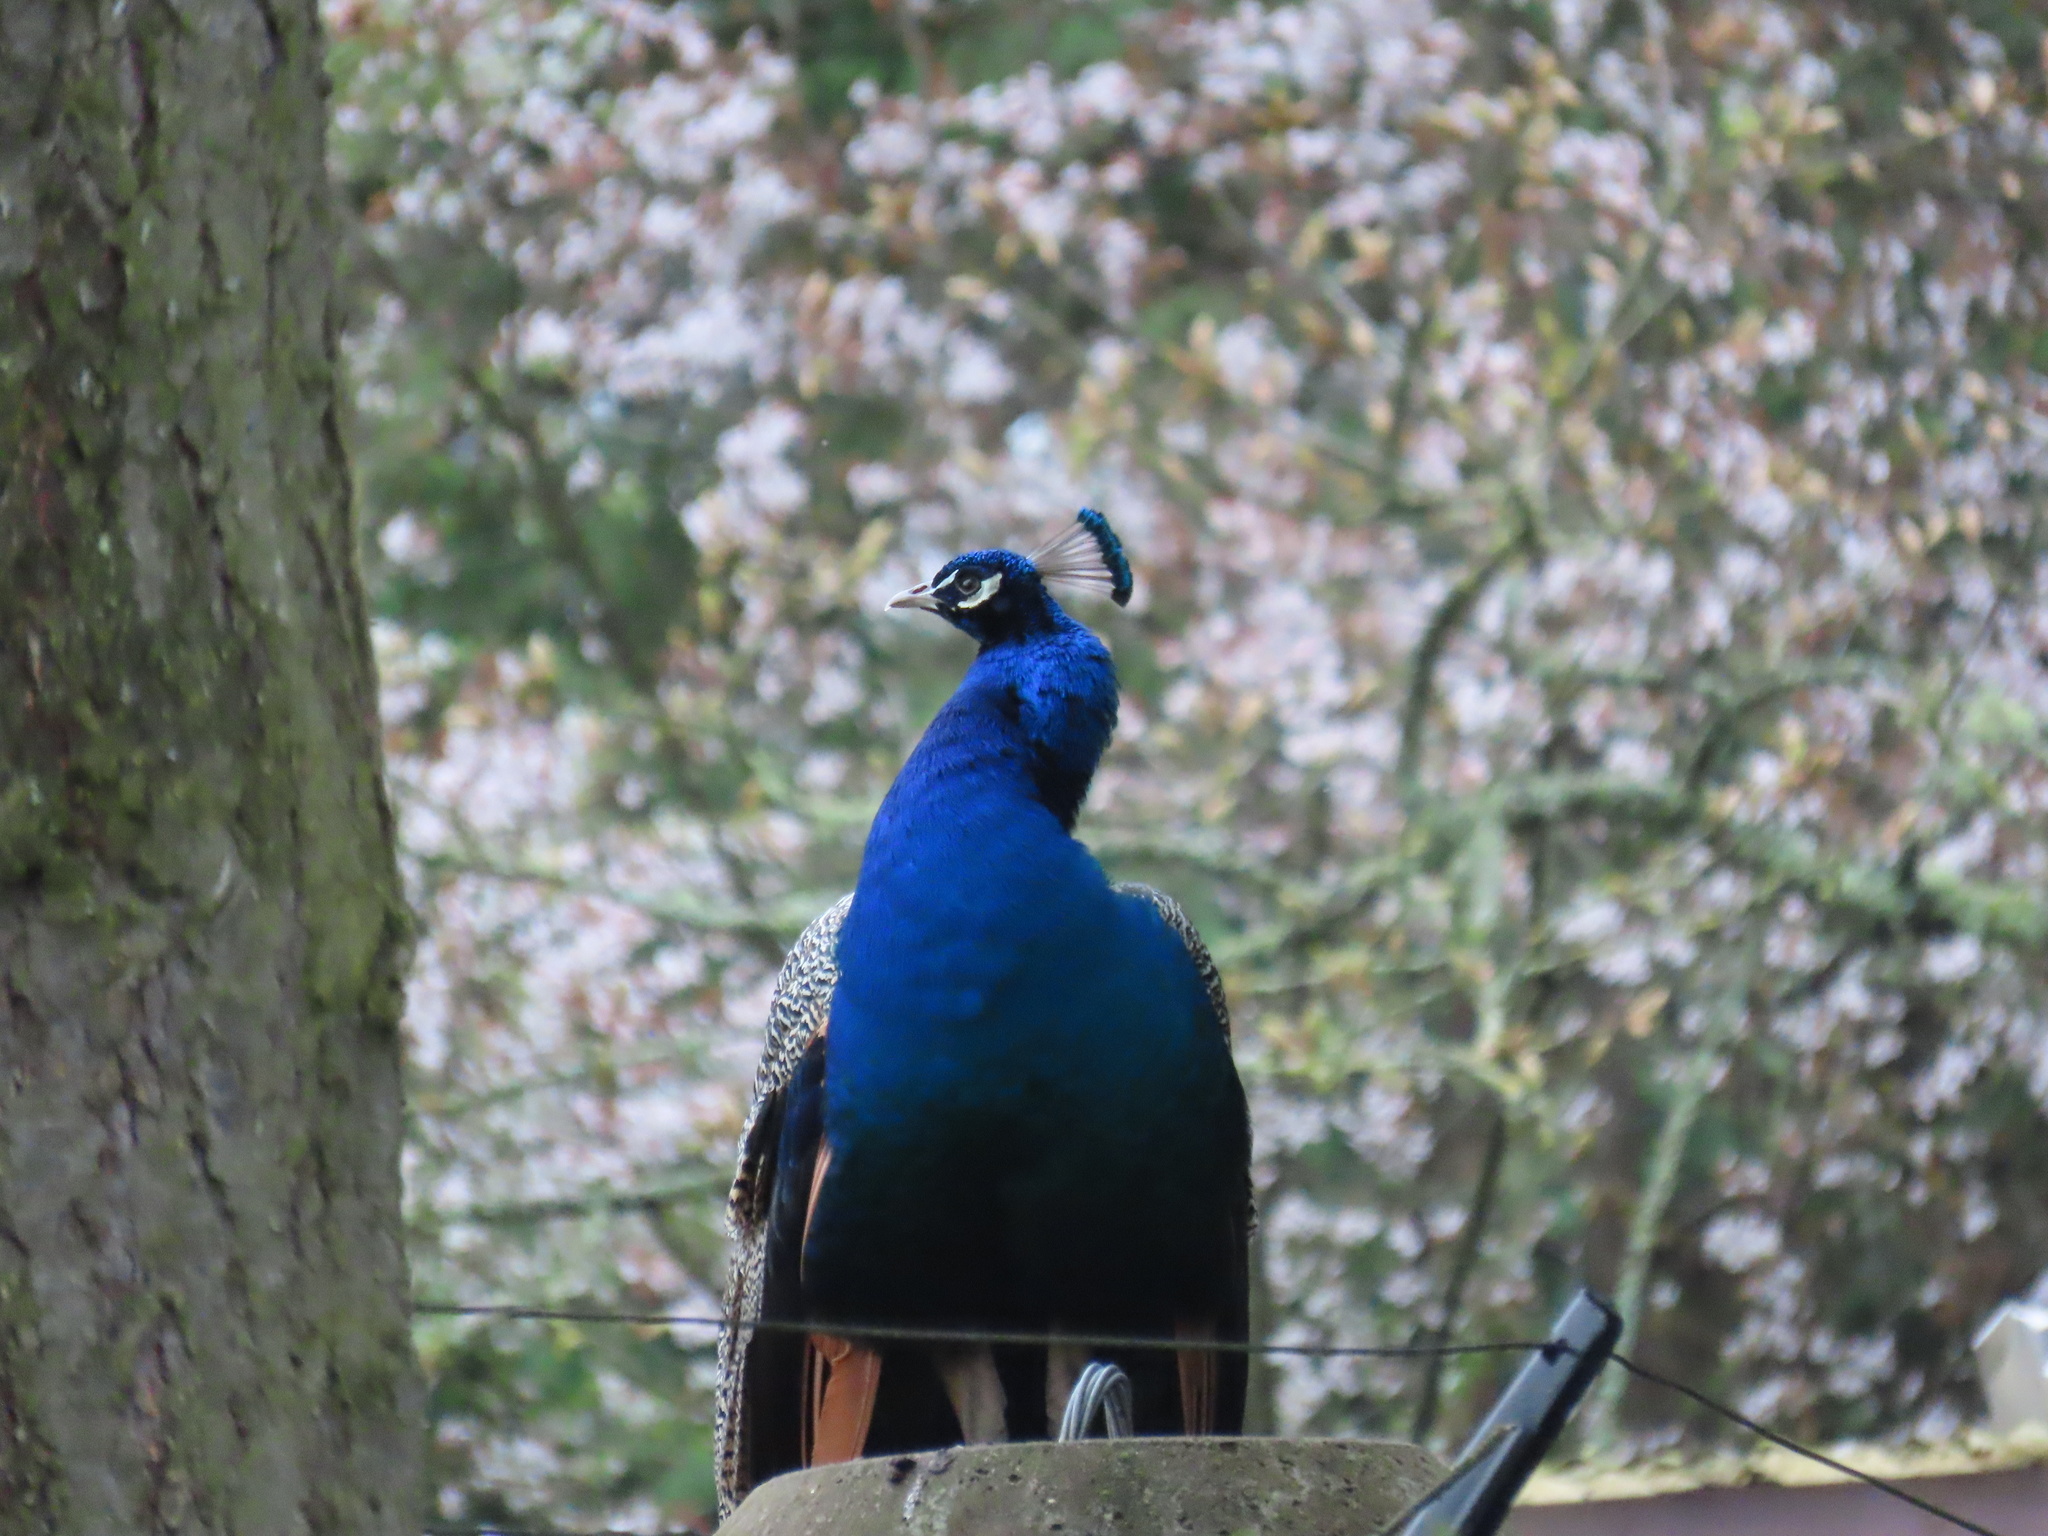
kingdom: Animalia
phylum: Chordata
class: Aves
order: Galliformes
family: Phasianidae
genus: Pavo
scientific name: Pavo cristatus
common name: Indian peafowl
